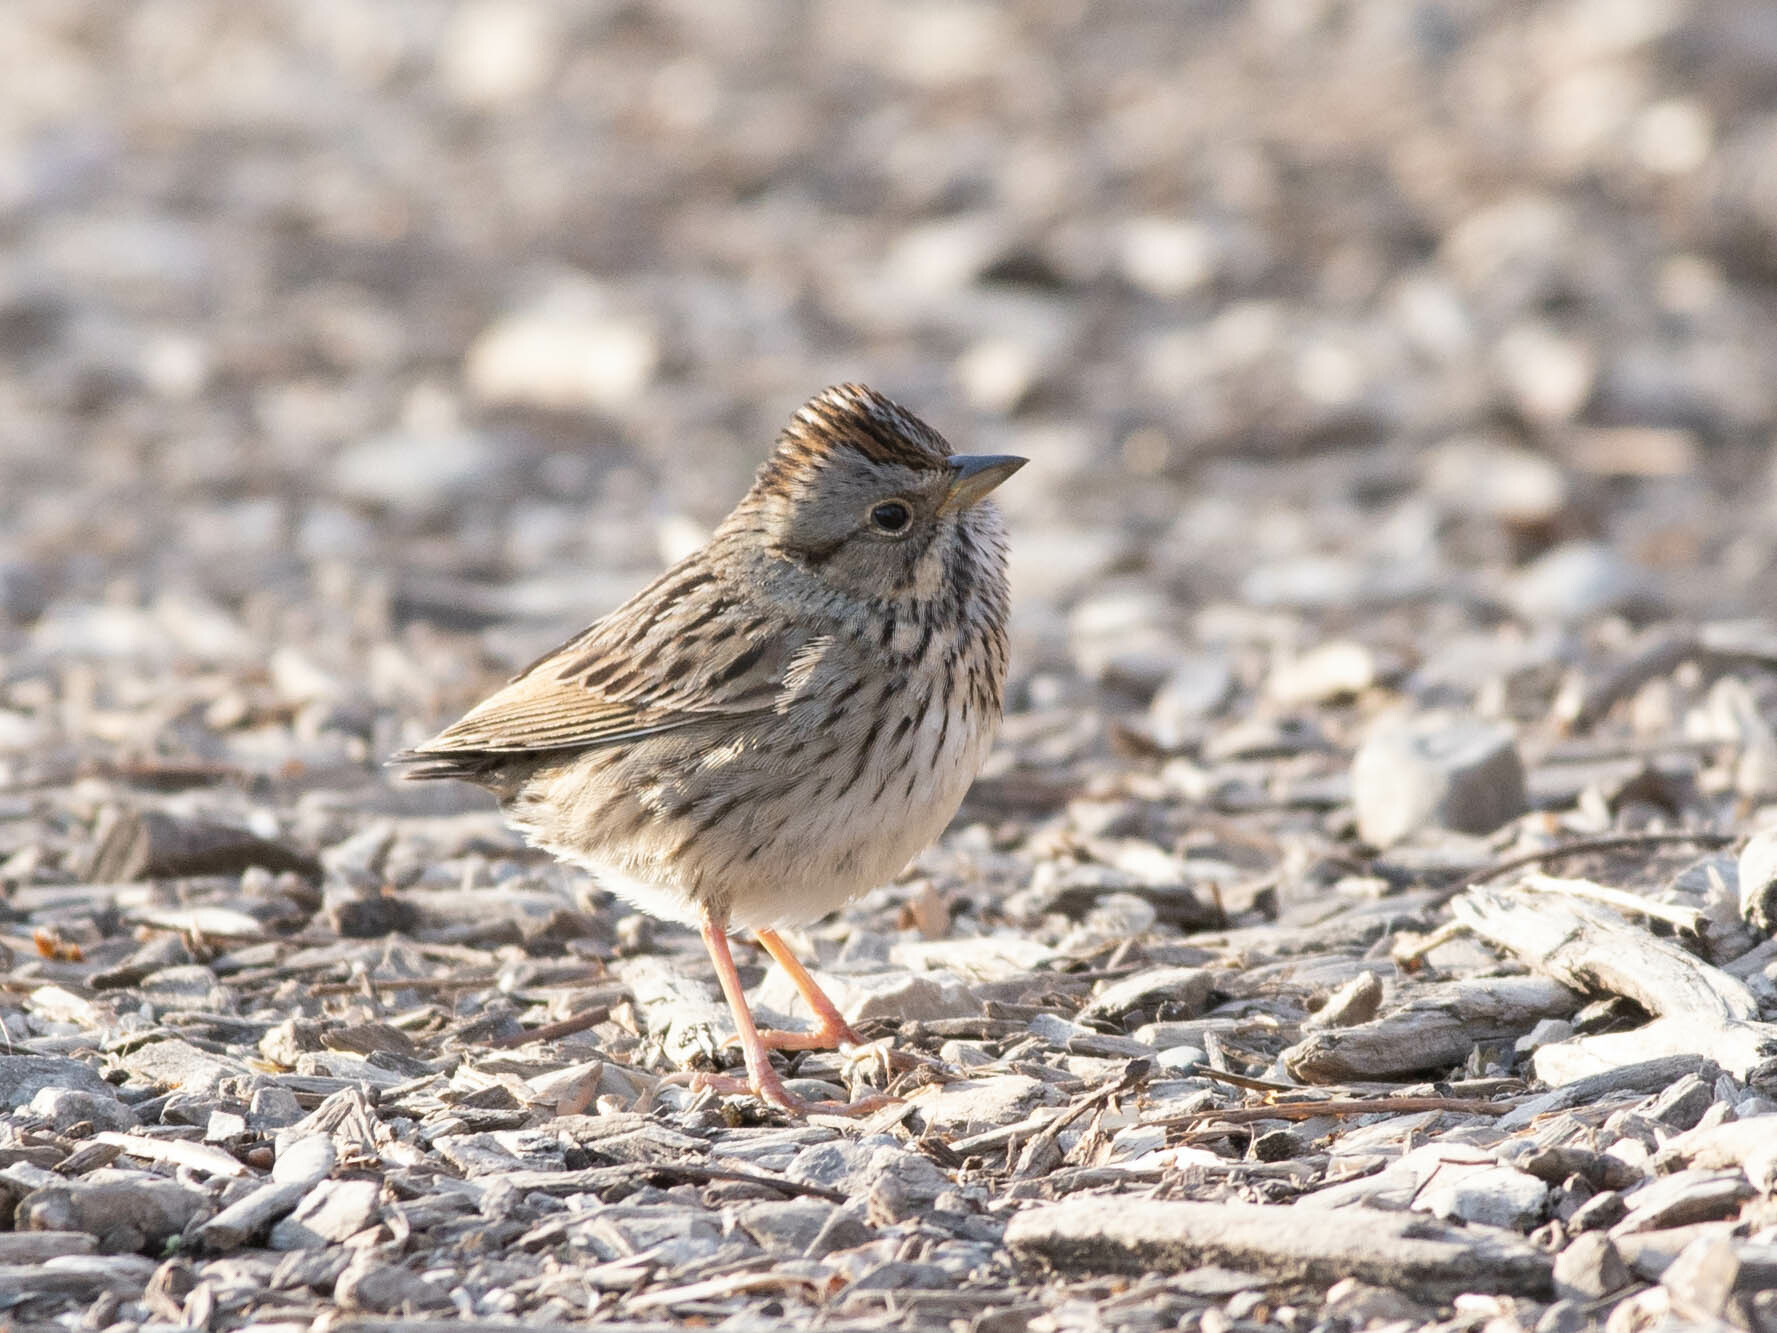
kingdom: Animalia
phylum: Chordata
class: Aves
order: Passeriformes
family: Passerellidae
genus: Melospiza
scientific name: Melospiza lincolnii
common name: Lincoln's sparrow
